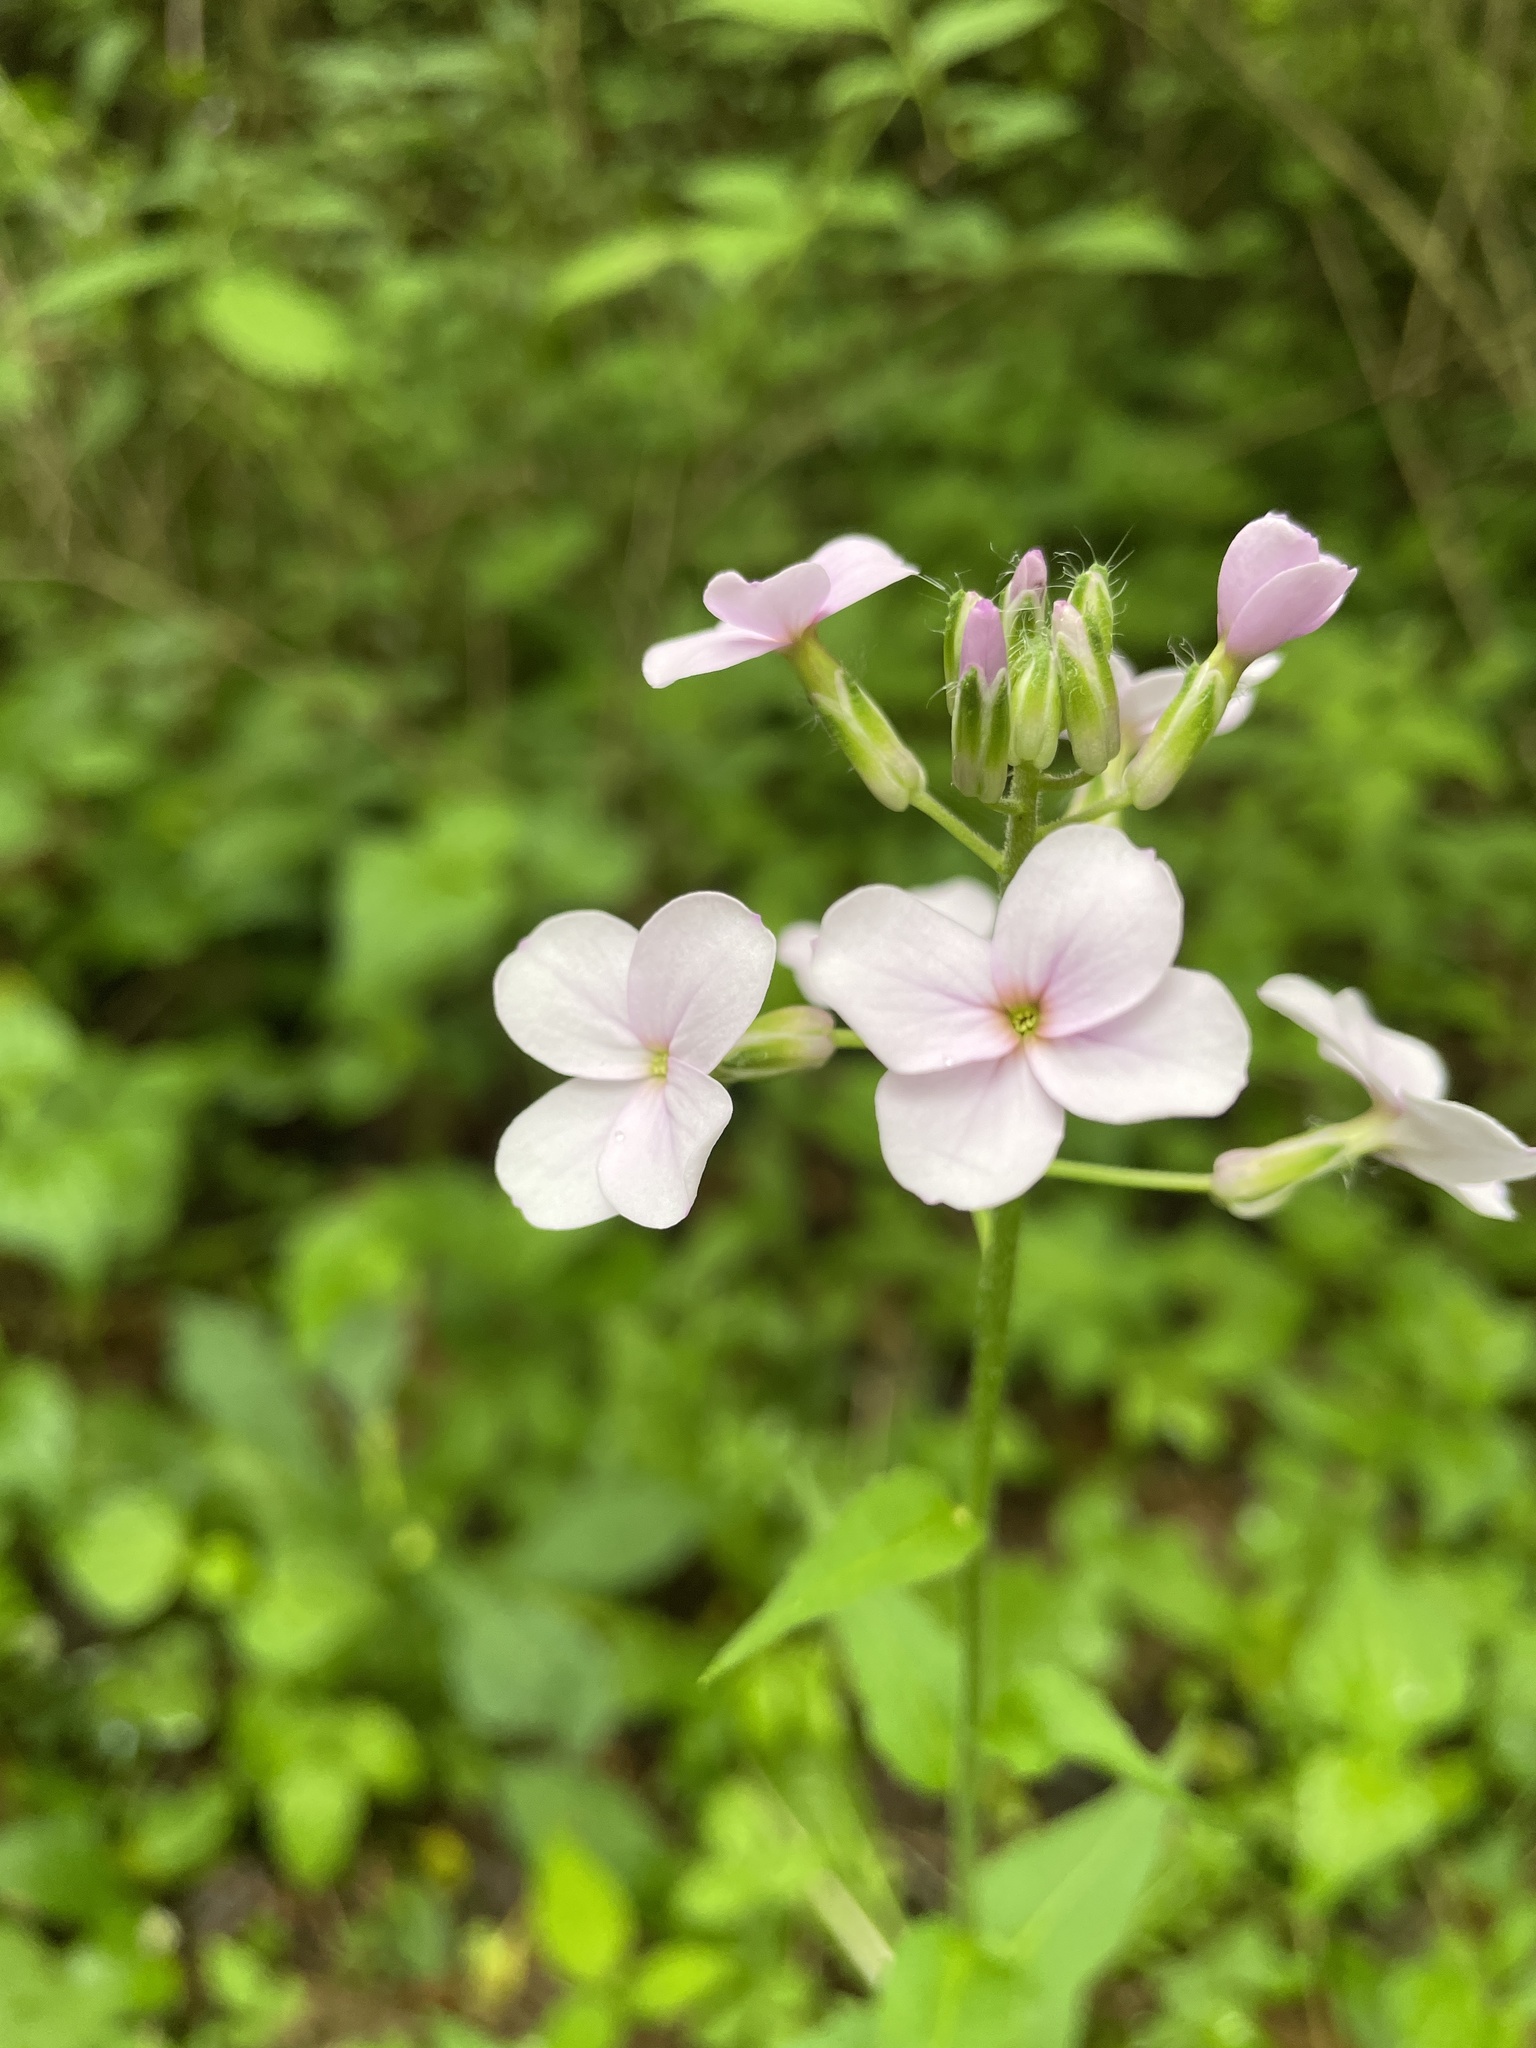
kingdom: Plantae
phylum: Tracheophyta
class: Magnoliopsida
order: Brassicales
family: Brassicaceae
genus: Hesperis
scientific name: Hesperis matronalis
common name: Dame's-violet
